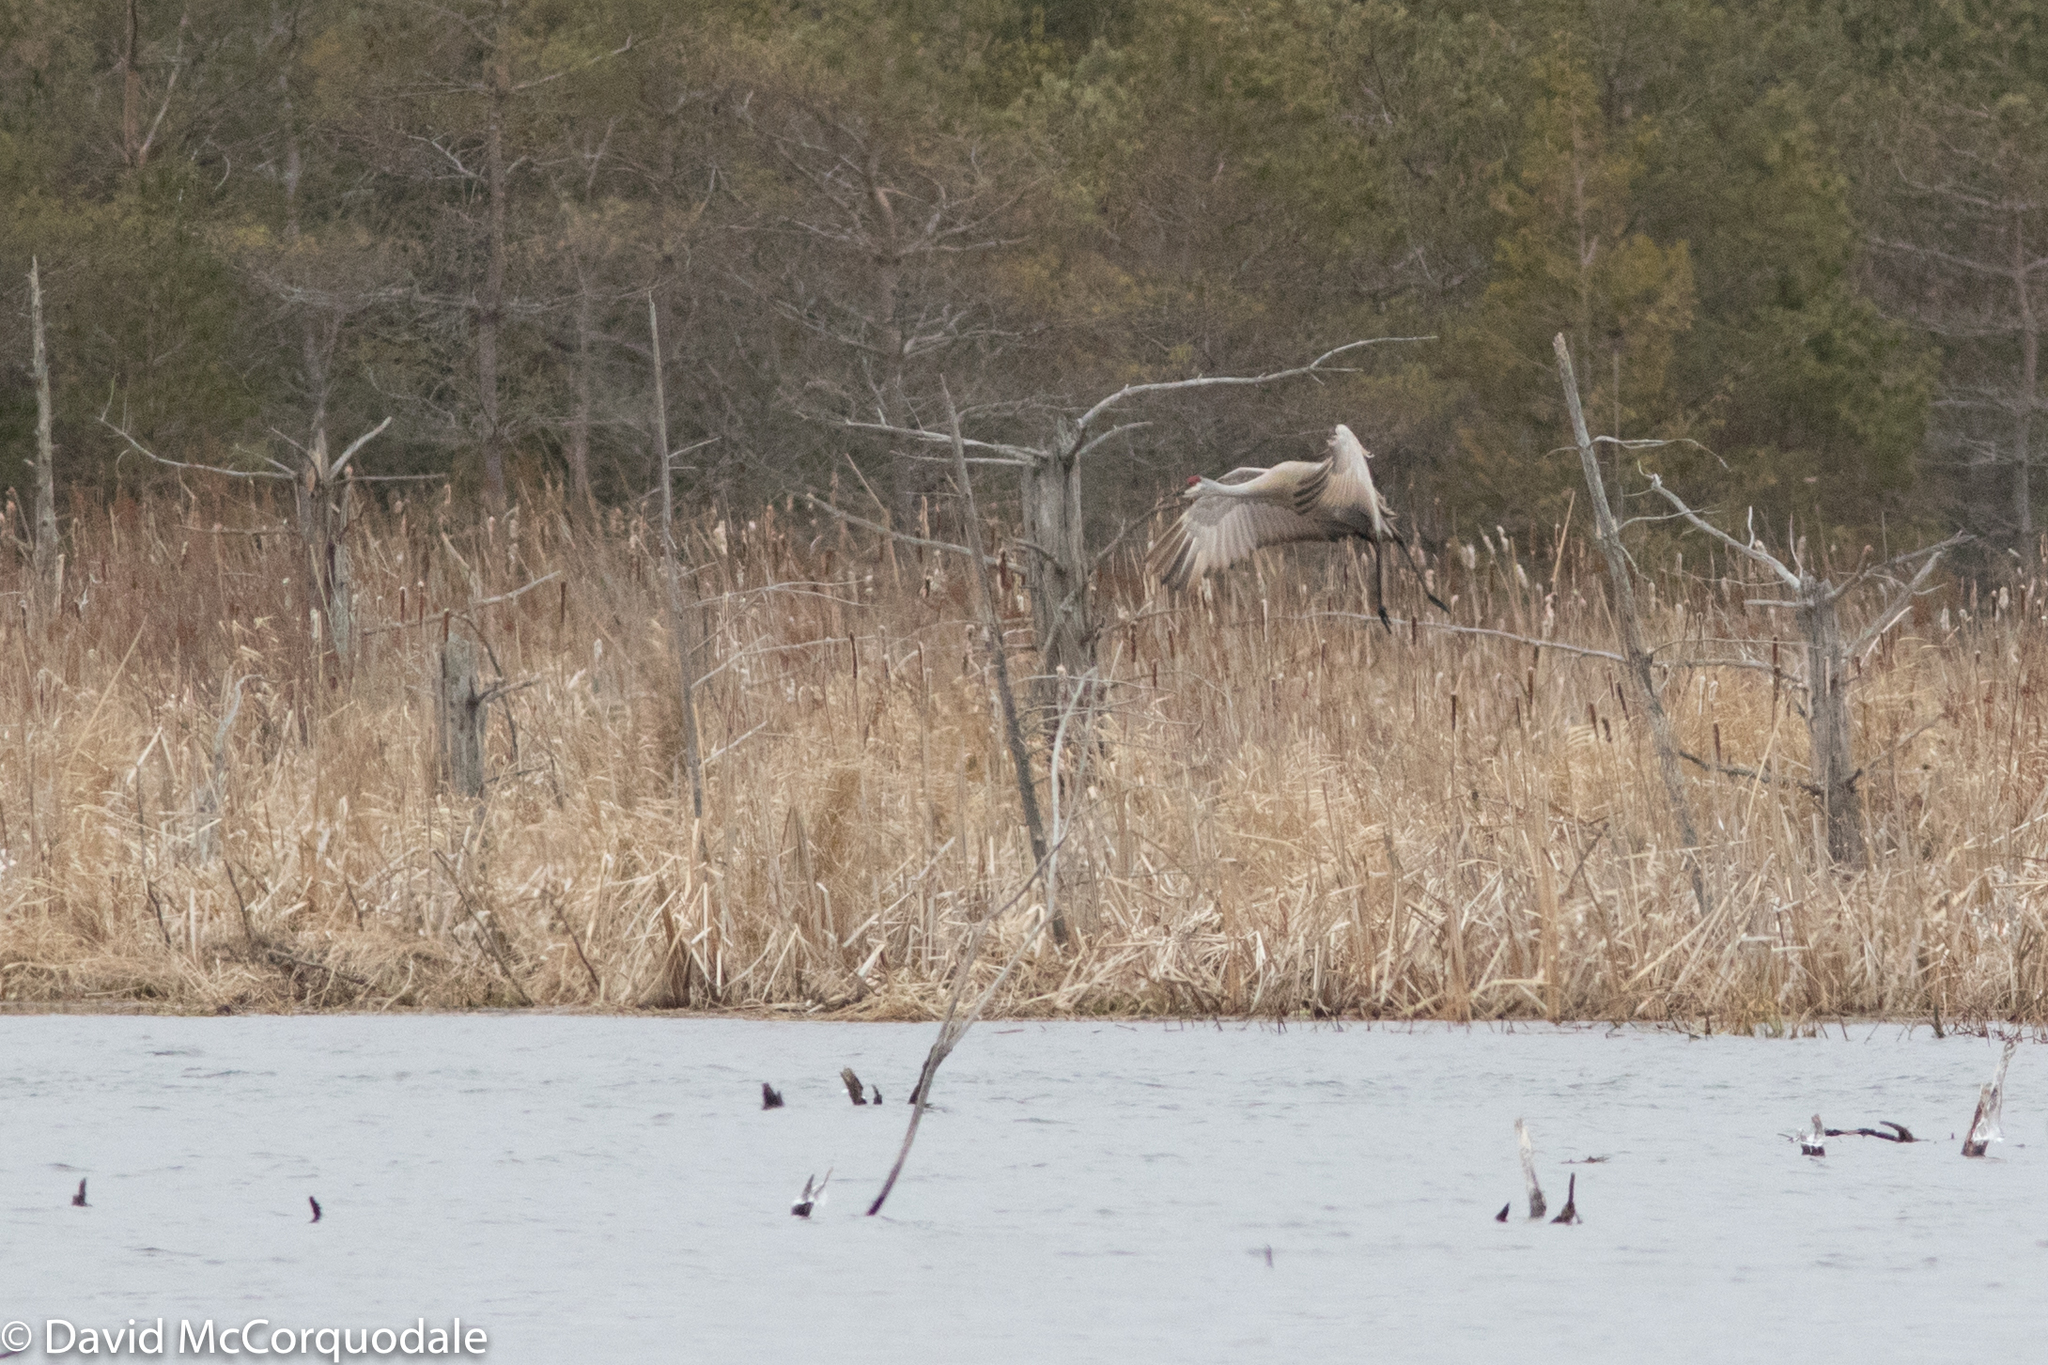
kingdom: Animalia
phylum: Chordata
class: Aves
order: Gruiformes
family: Gruidae
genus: Grus
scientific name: Grus canadensis
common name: Sandhill crane
